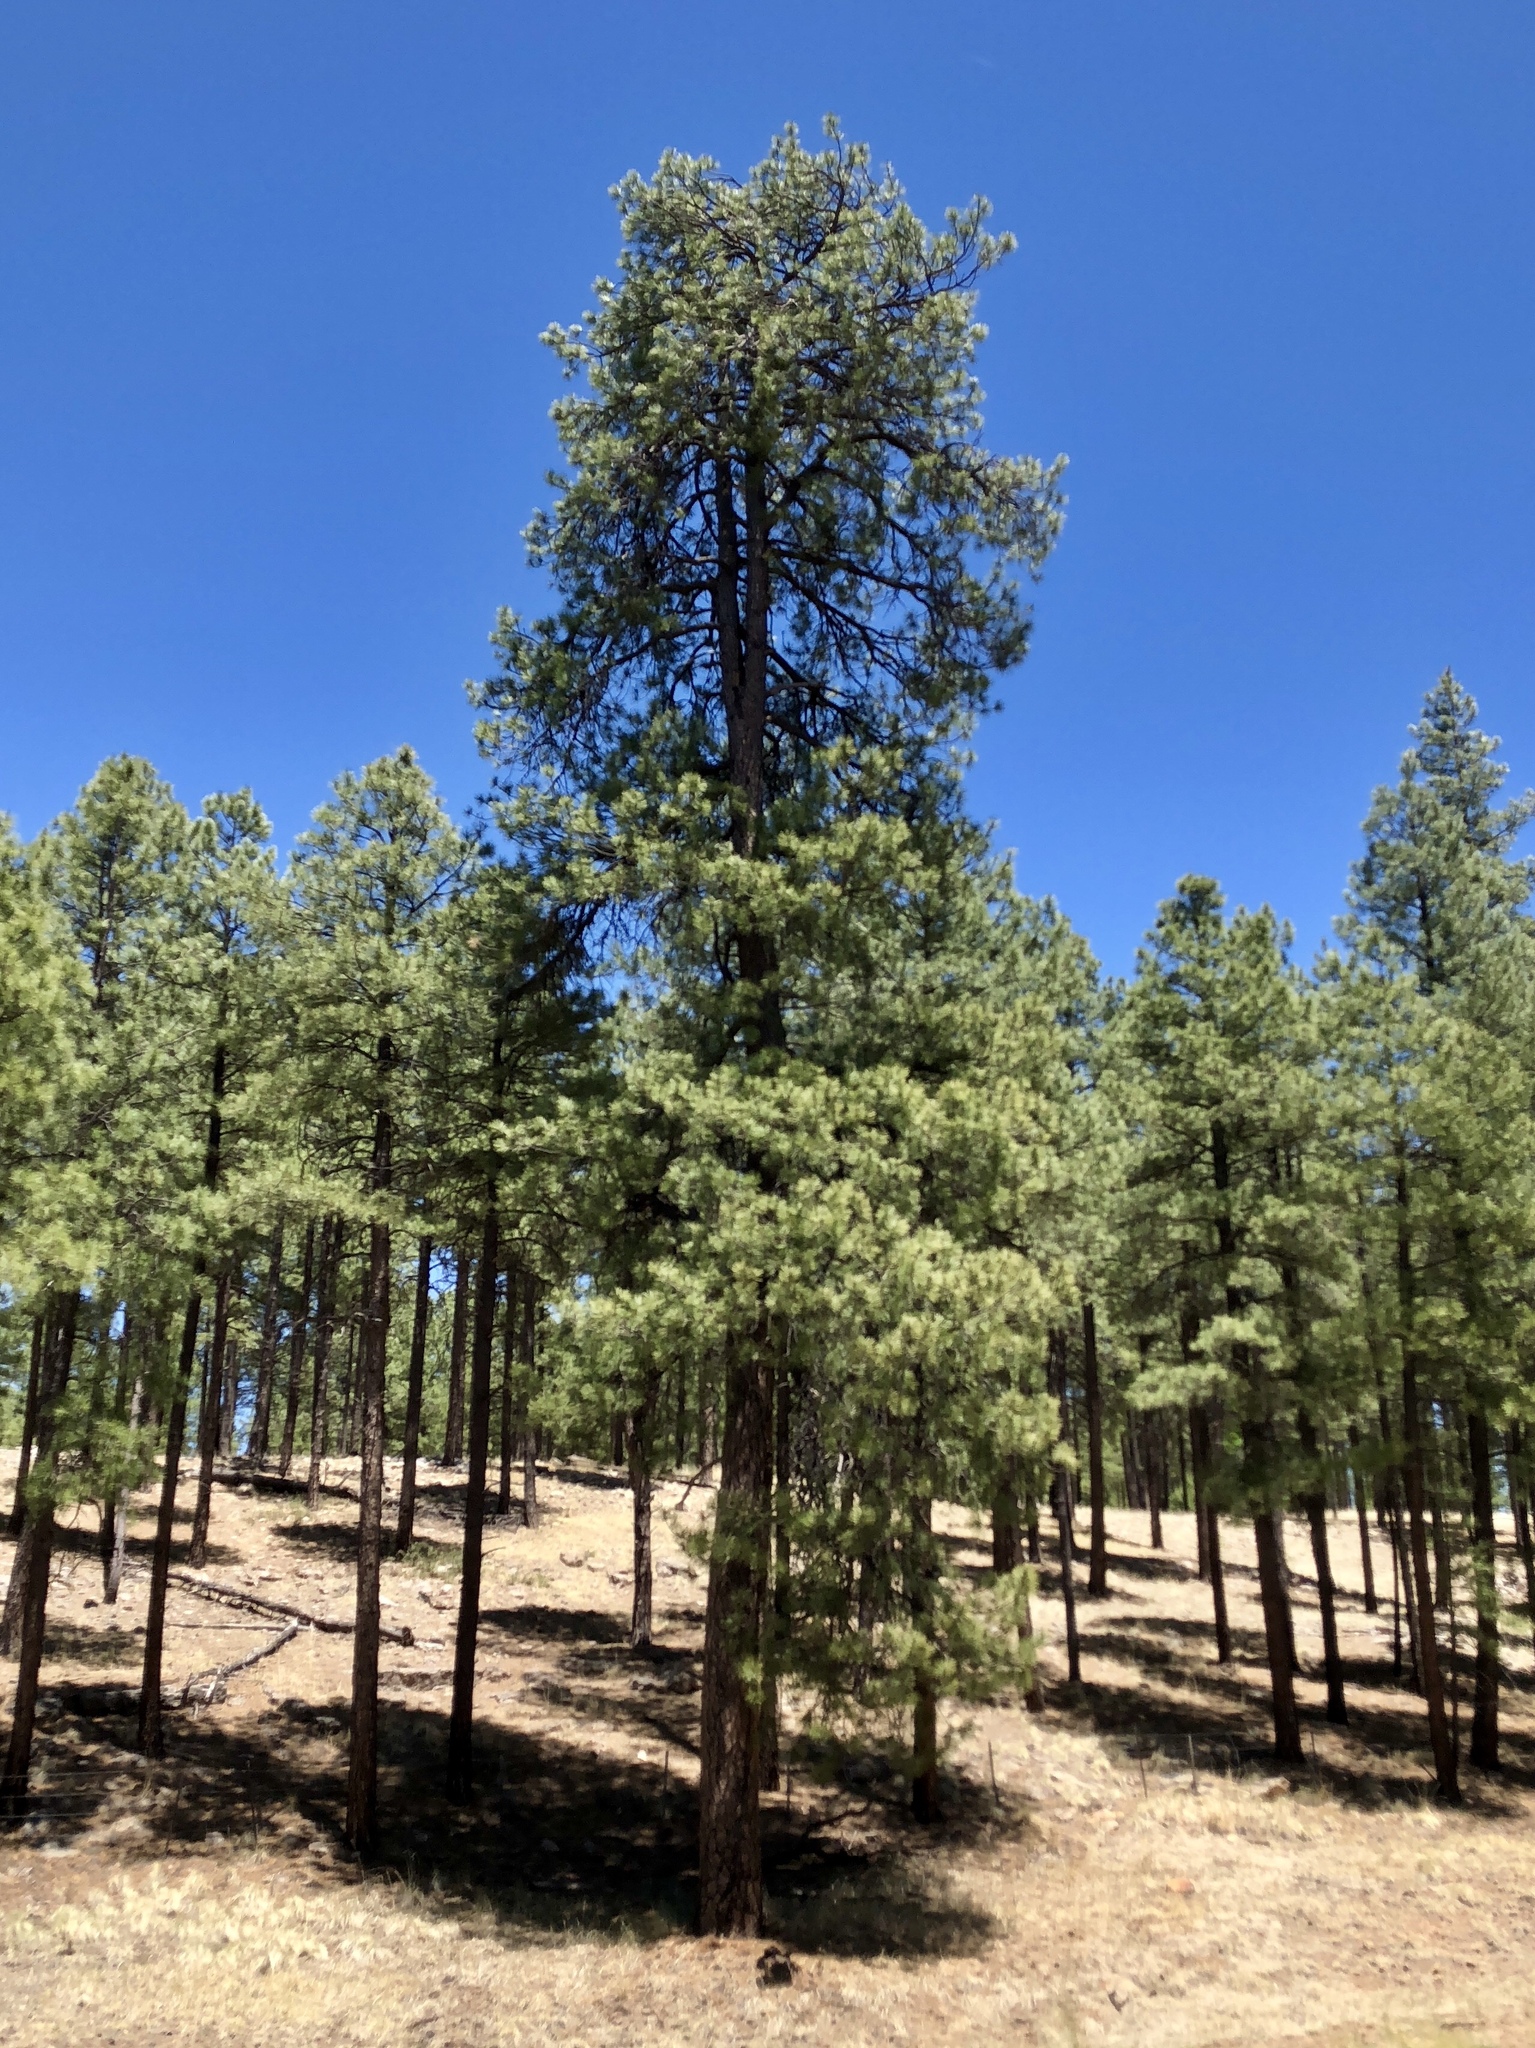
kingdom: Plantae
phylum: Tracheophyta
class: Pinopsida
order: Pinales
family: Pinaceae
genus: Pinus
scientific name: Pinus ponderosa
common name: Western yellow-pine
